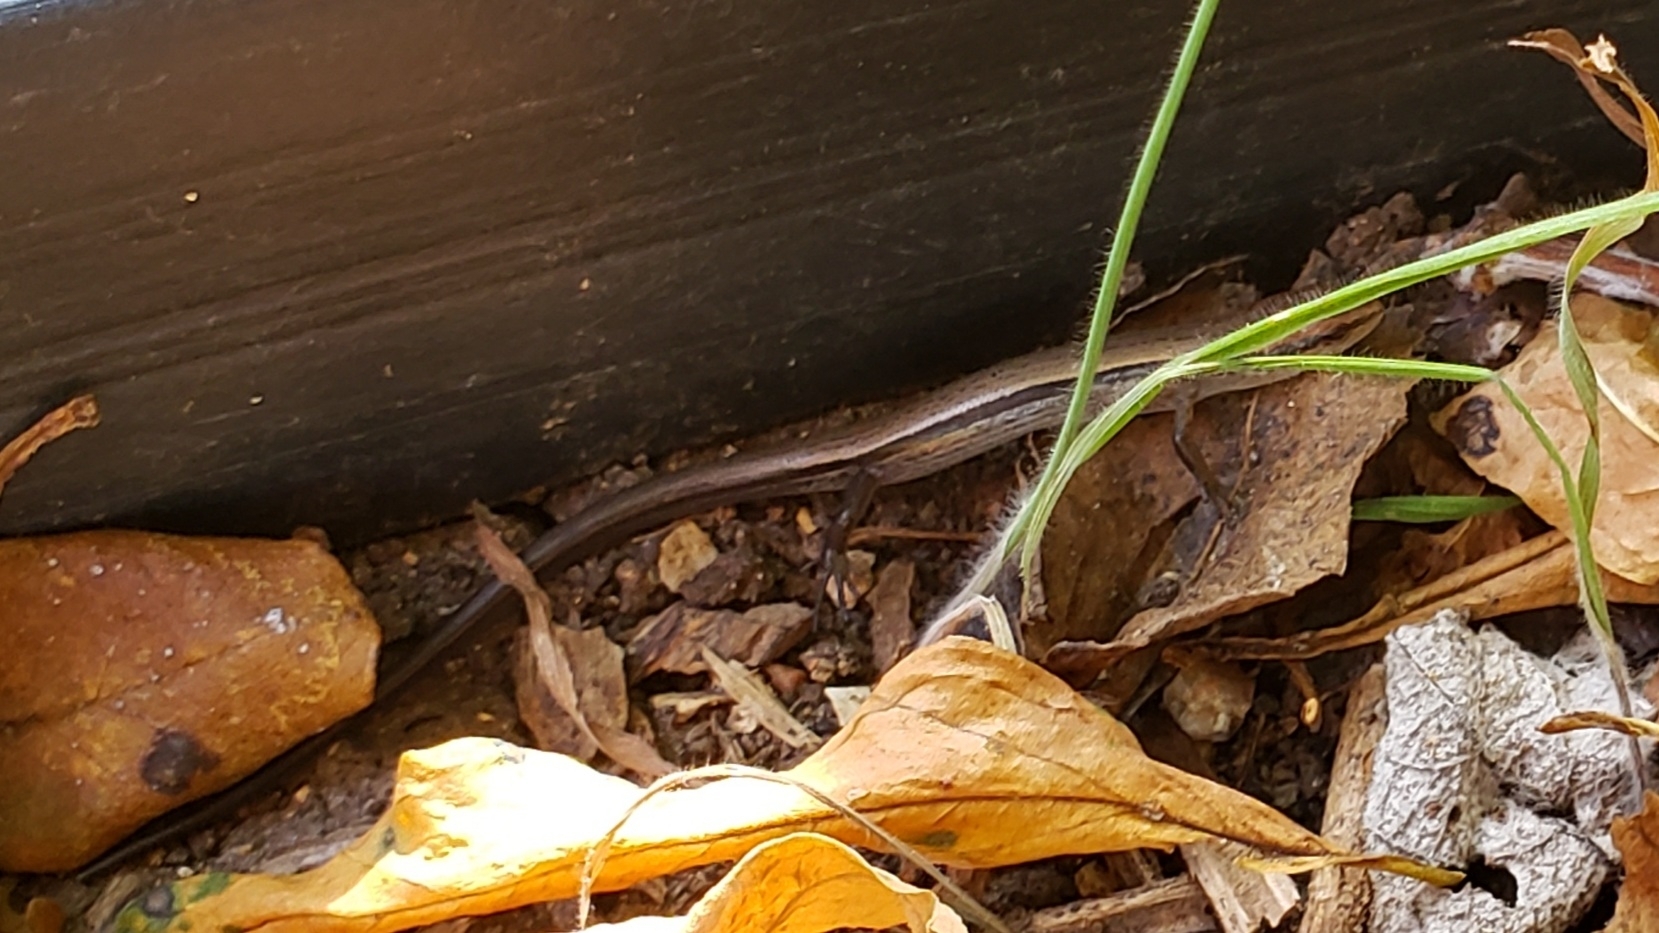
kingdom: Animalia
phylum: Chordata
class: Squamata
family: Scincidae
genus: Scincella
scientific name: Scincella lateralis
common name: Ground skink
